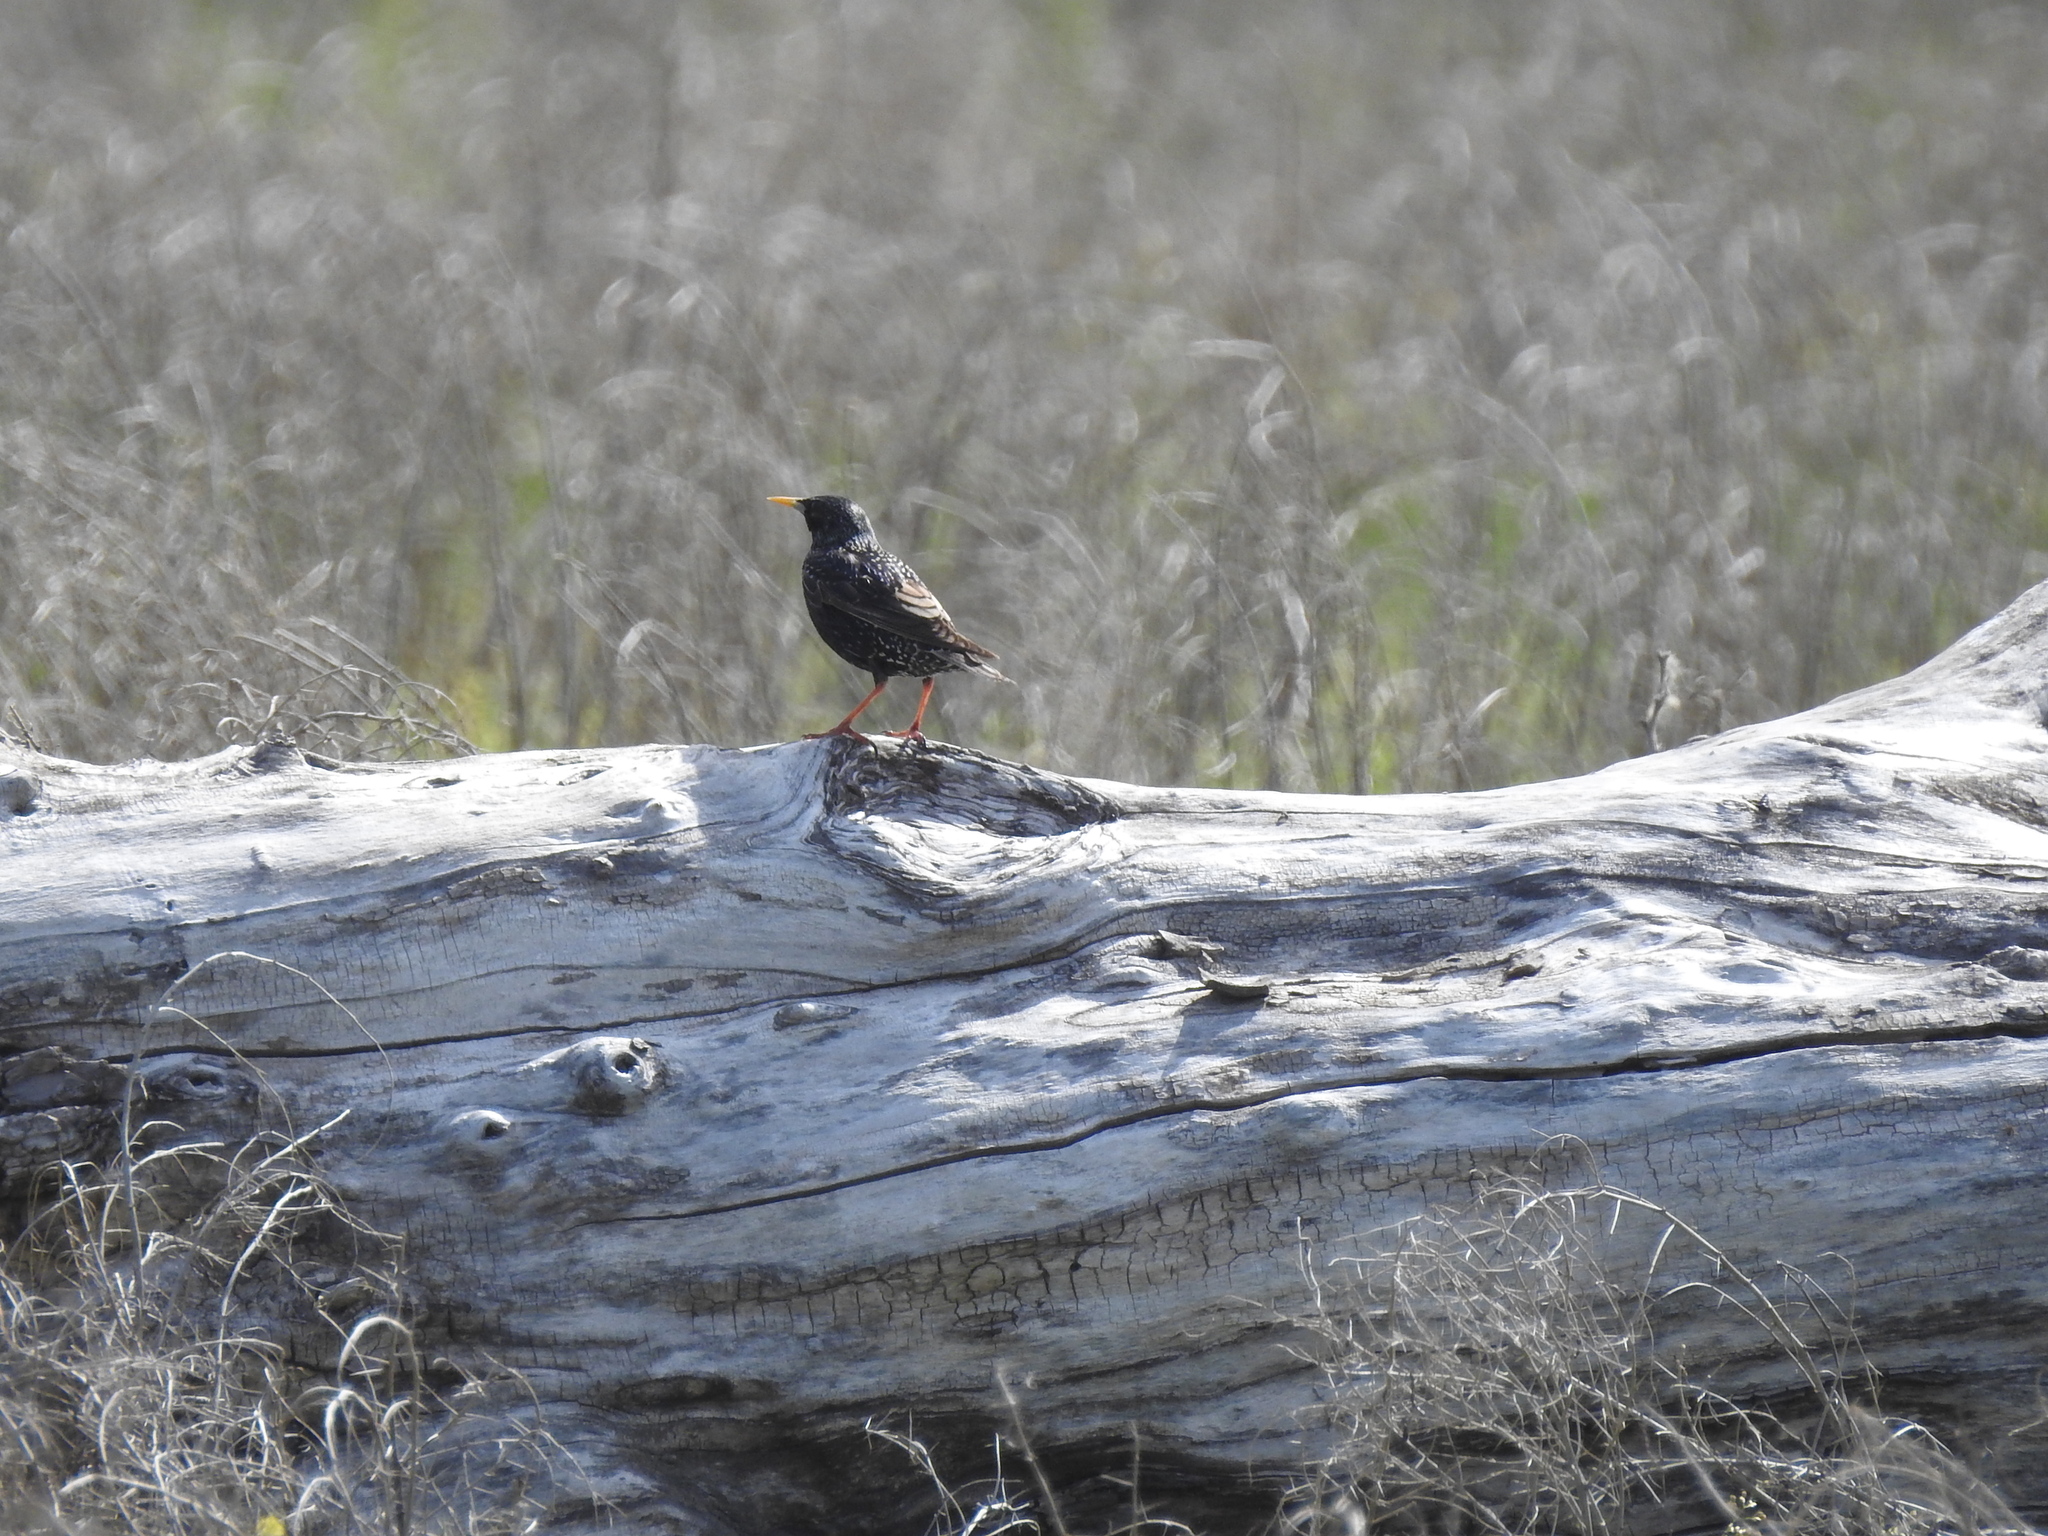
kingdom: Animalia
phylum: Chordata
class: Aves
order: Passeriformes
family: Sturnidae
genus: Sturnus
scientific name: Sturnus vulgaris
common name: Common starling
